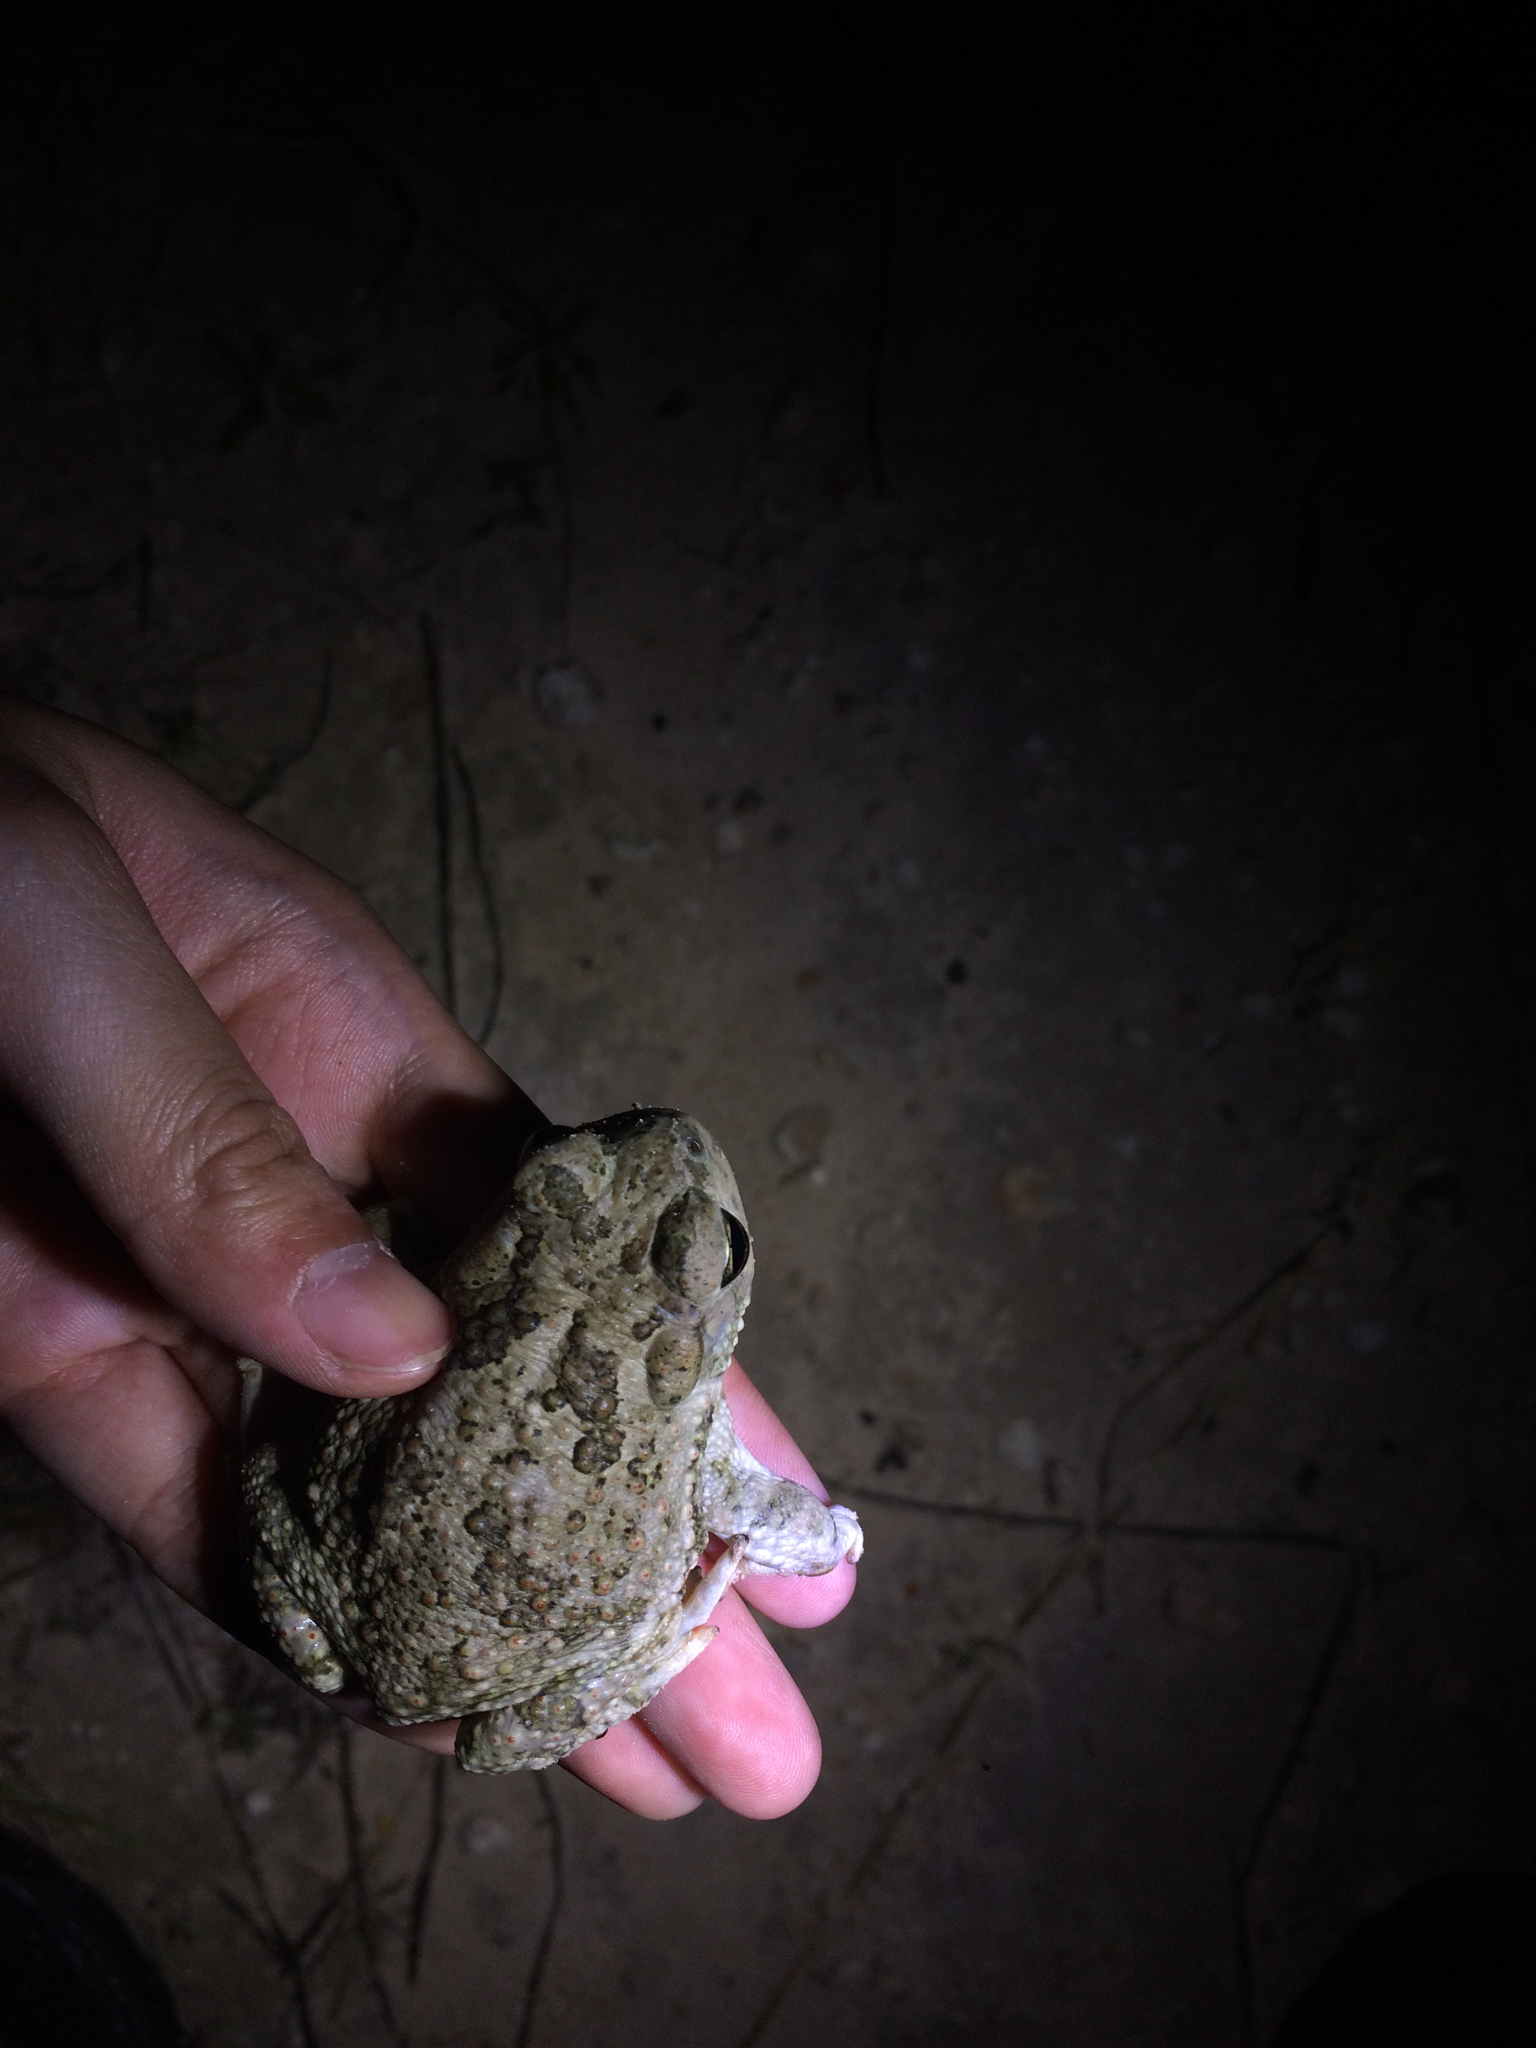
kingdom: Animalia
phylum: Chordata
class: Amphibia
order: Anura
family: Bufonidae
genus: Anaxyrus
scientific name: Anaxyrus speciosus
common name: Texas toad
